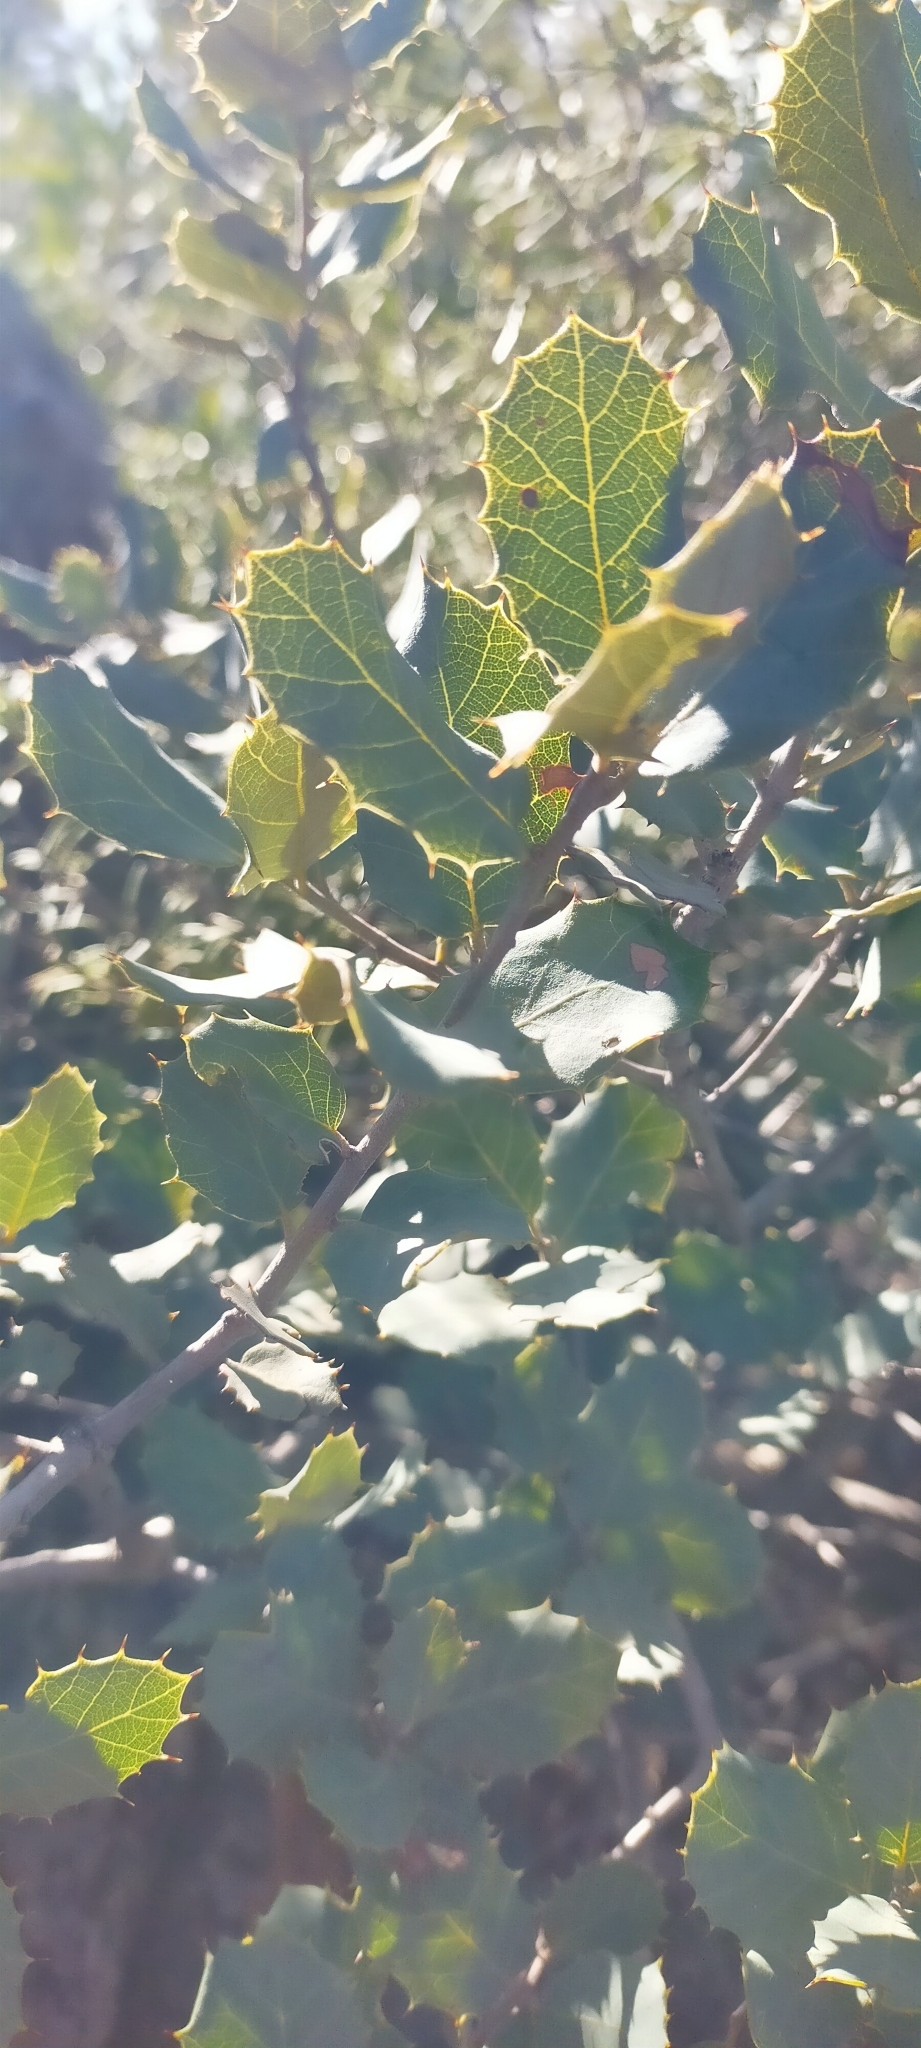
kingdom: Plantae
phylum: Tracheophyta
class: Magnoliopsida
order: Fagales
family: Fagaceae
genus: Quercus
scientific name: Quercus rotundifolia
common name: Holm oak
